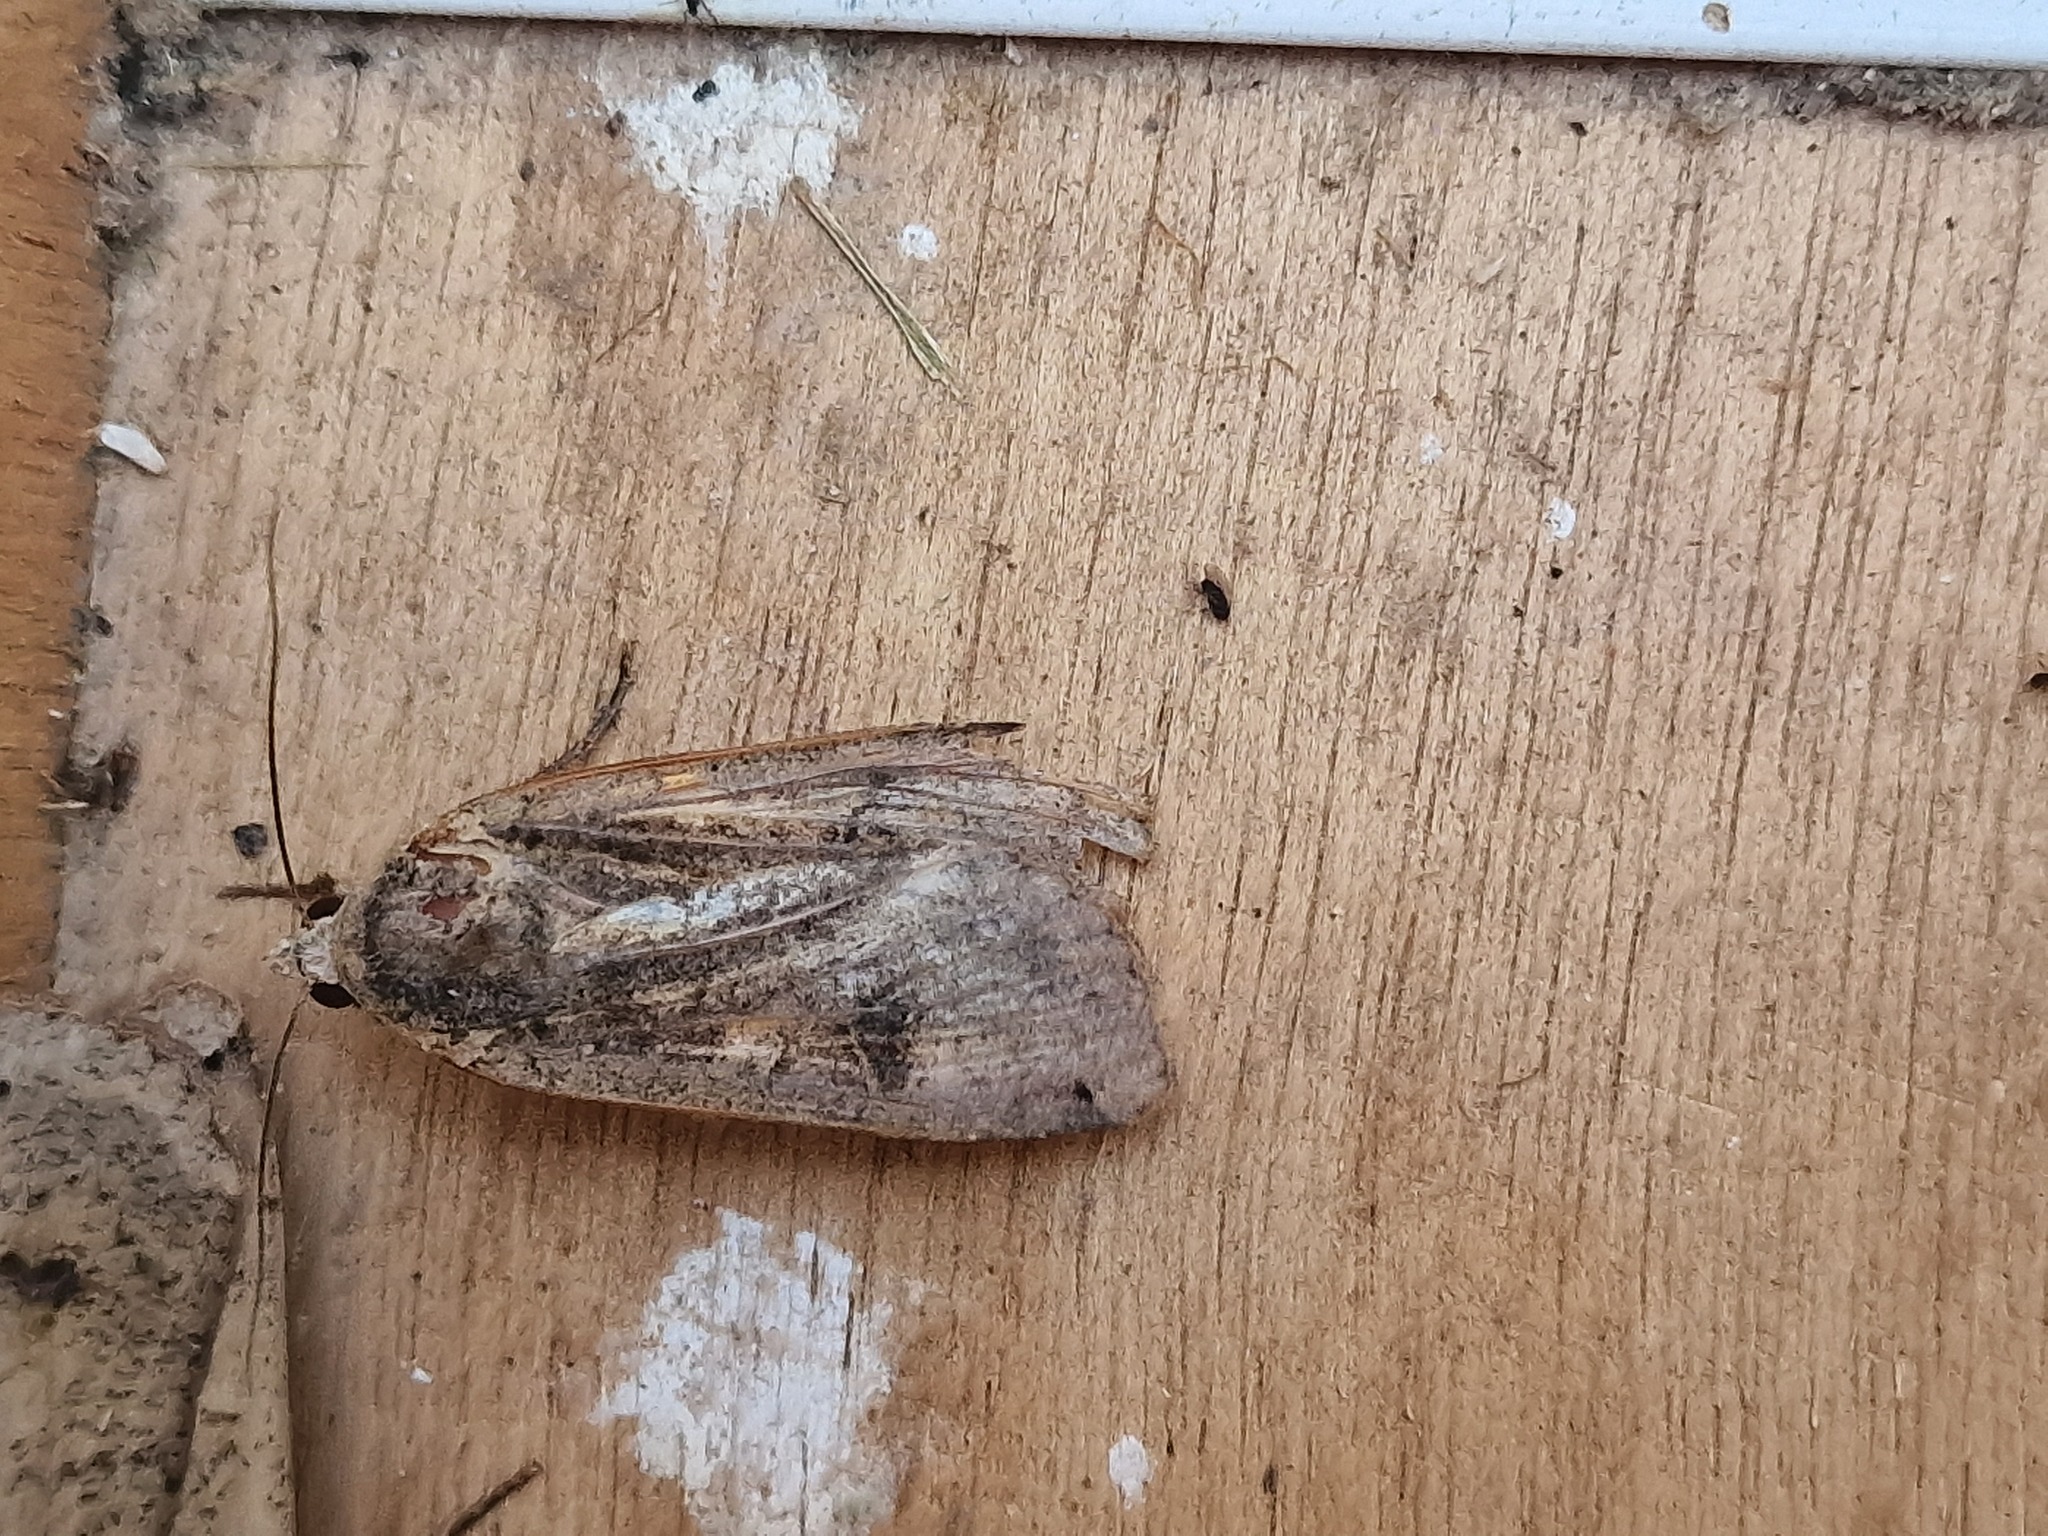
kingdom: Animalia
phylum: Arthropoda
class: Insecta
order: Lepidoptera
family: Noctuidae
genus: Noctua
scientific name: Noctua pronuba
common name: Large yellow underwing
